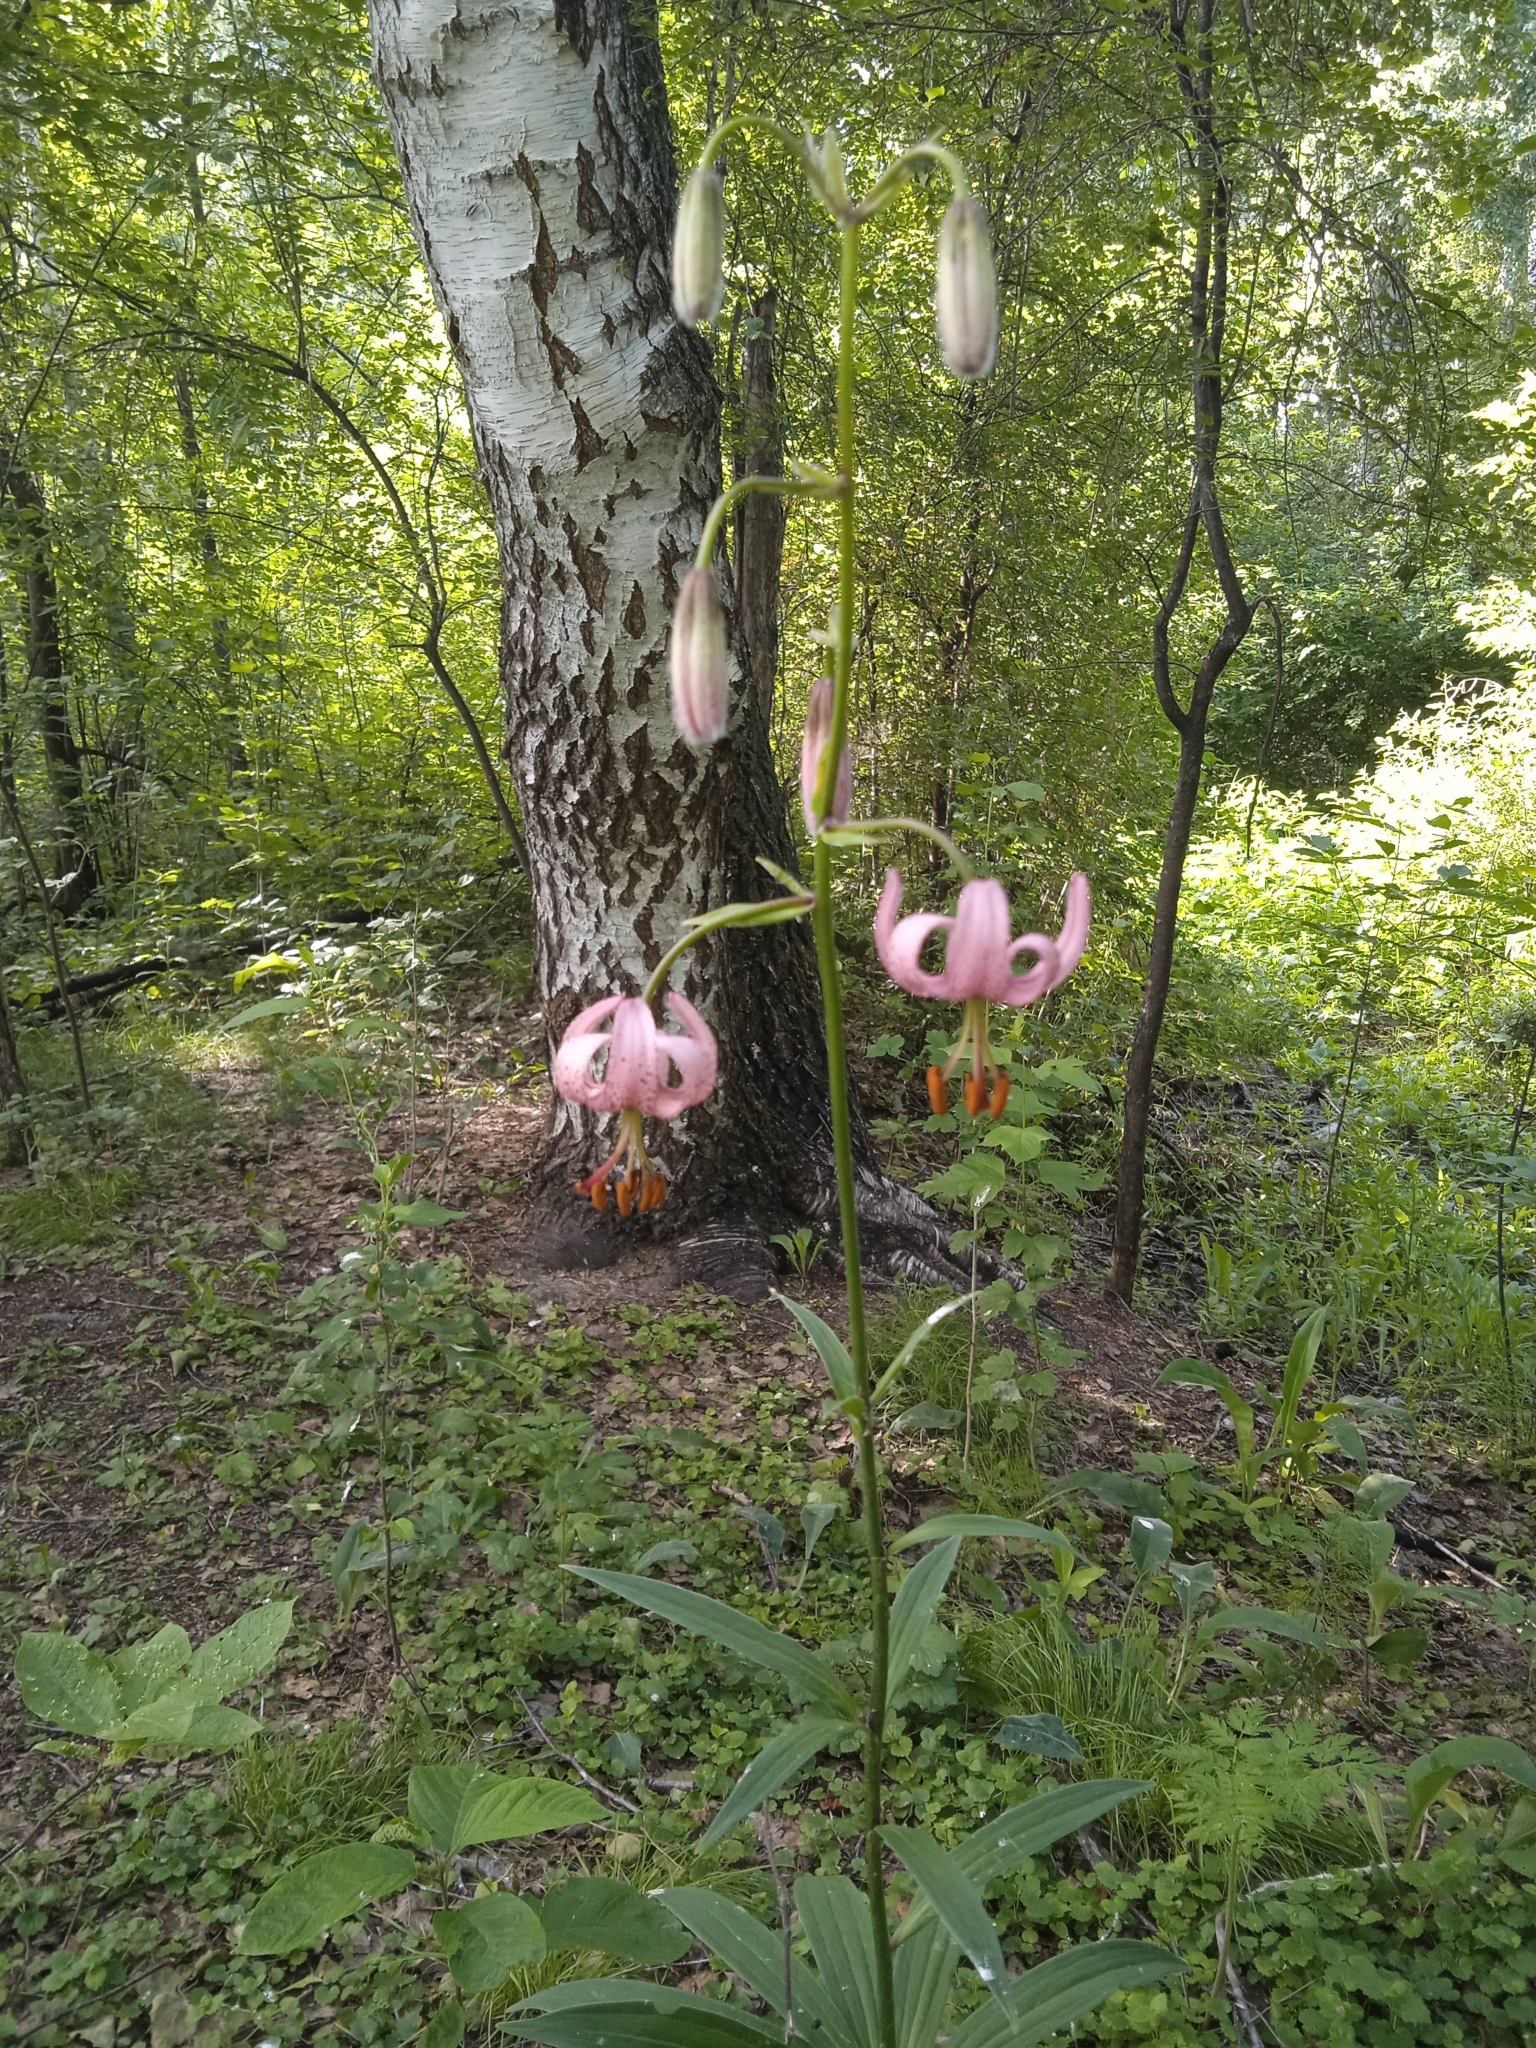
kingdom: Plantae
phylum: Tracheophyta
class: Liliopsida
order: Liliales
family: Liliaceae
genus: Lilium
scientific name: Lilium martagon
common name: Martagon lily
